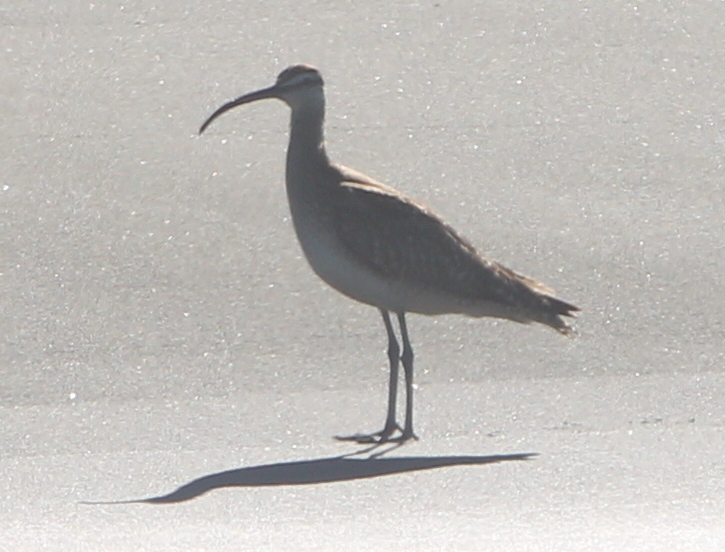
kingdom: Animalia
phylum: Chordata
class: Aves
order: Charadriiformes
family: Scolopacidae
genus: Numenius
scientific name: Numenius phaeopus
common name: Whimbrel
